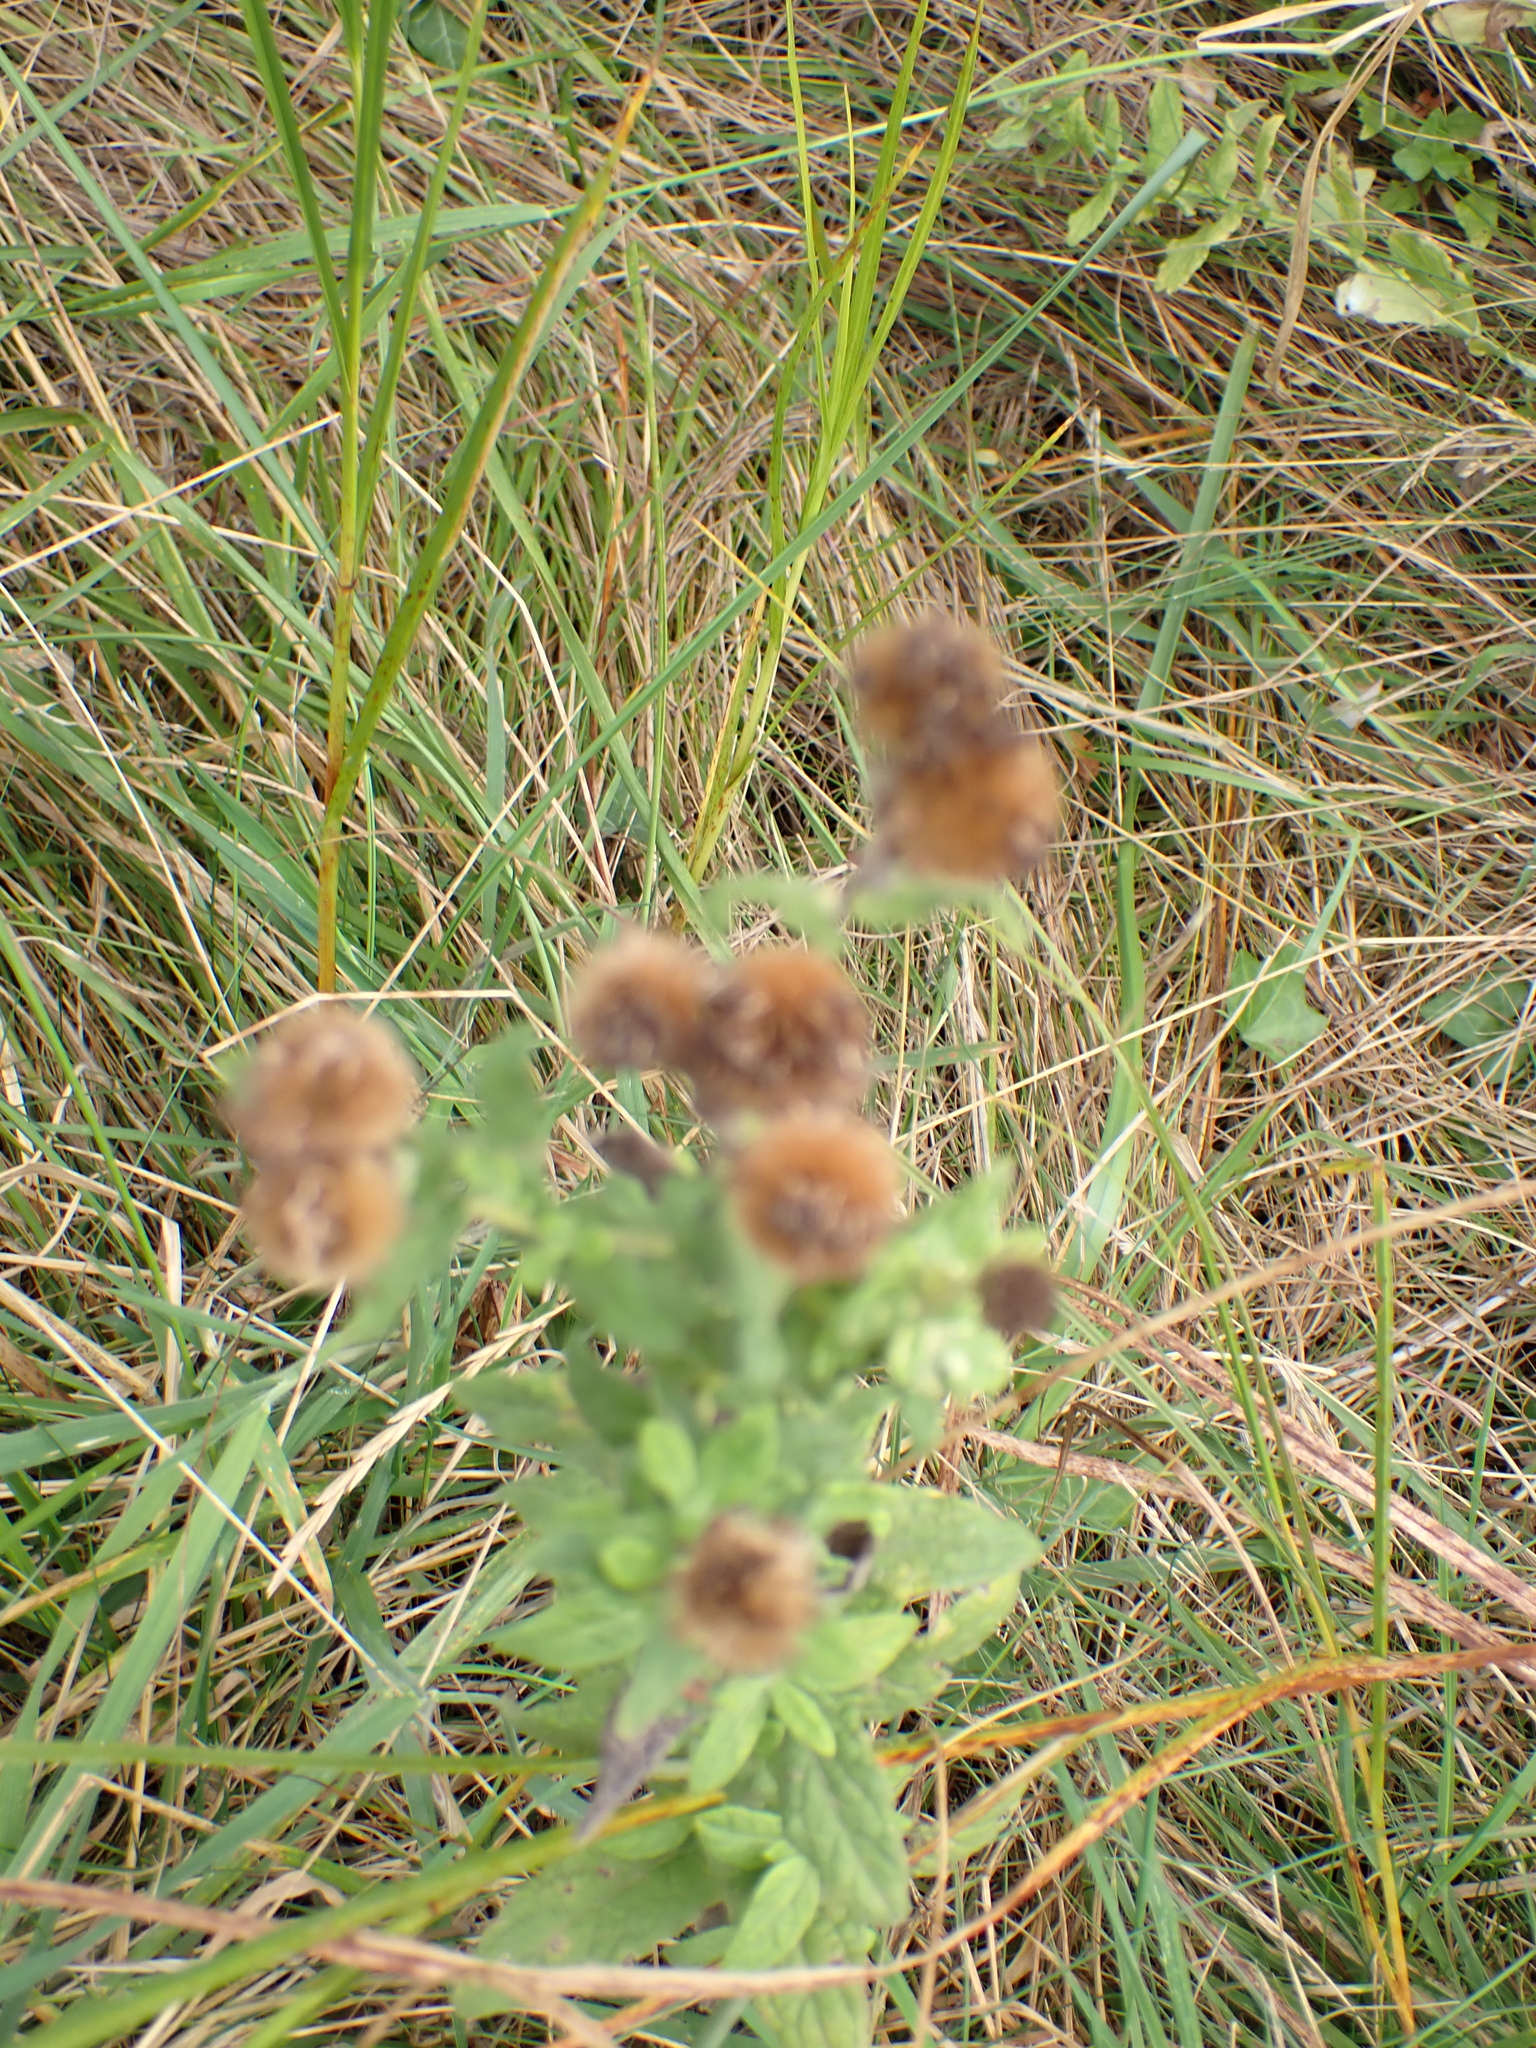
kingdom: Plantae
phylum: Tracheophyta
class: Magnoliopsida
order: Asterales
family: Asteraceae
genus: Pulicaria
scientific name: Pulicaria dysenterica
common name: Common fleabane
